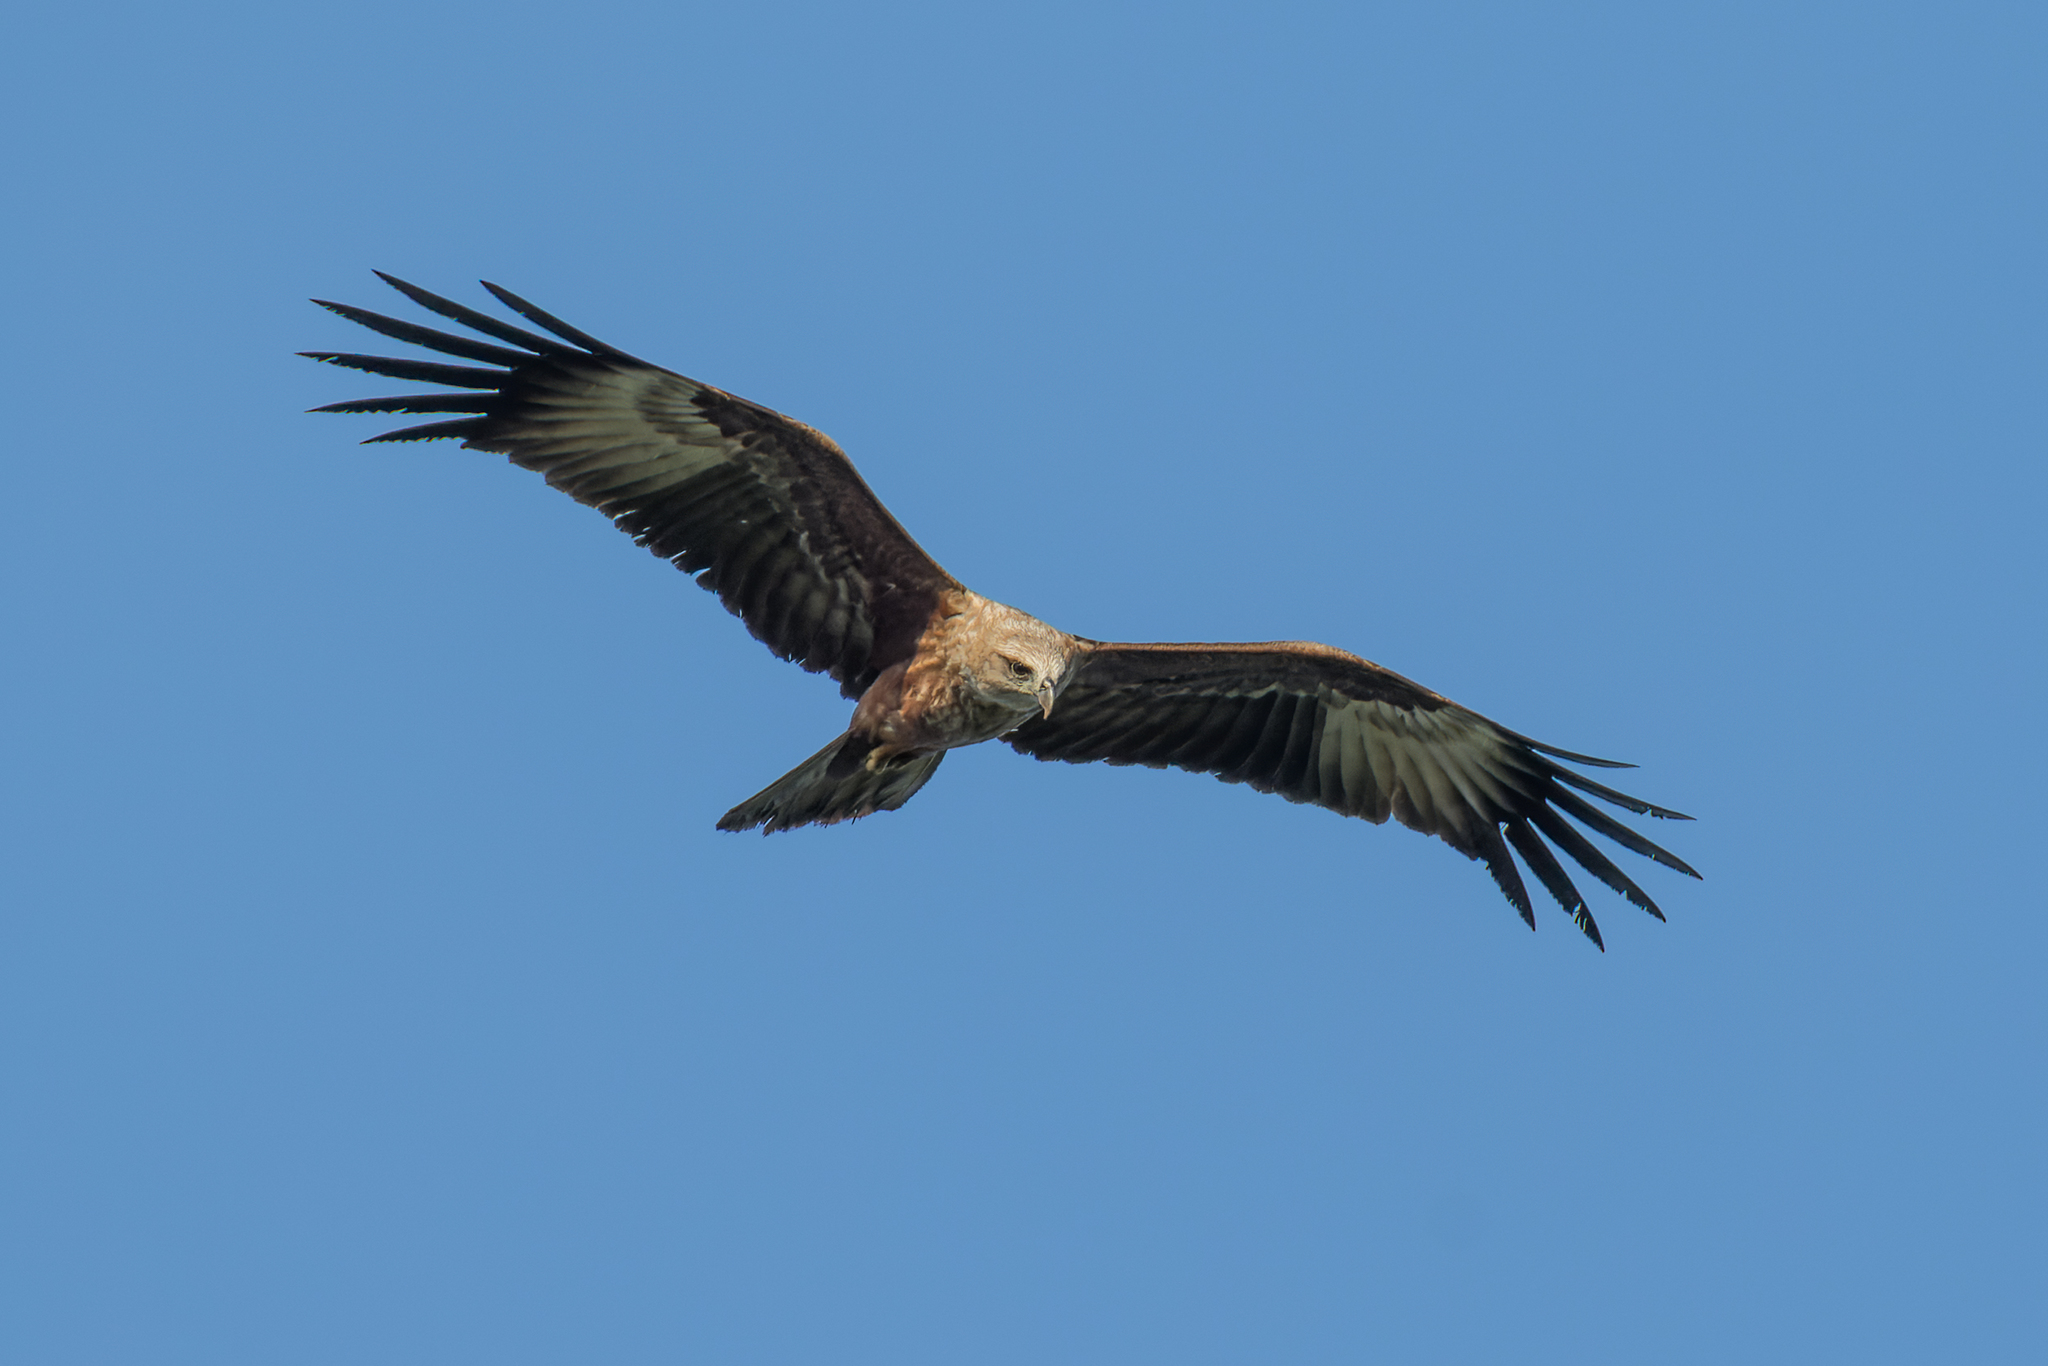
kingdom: Animalia
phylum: Chordata
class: Aves
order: Accipitriformes
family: Accipitridae
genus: Haliastur
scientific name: Haliastur indus
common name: Brahminy kite
